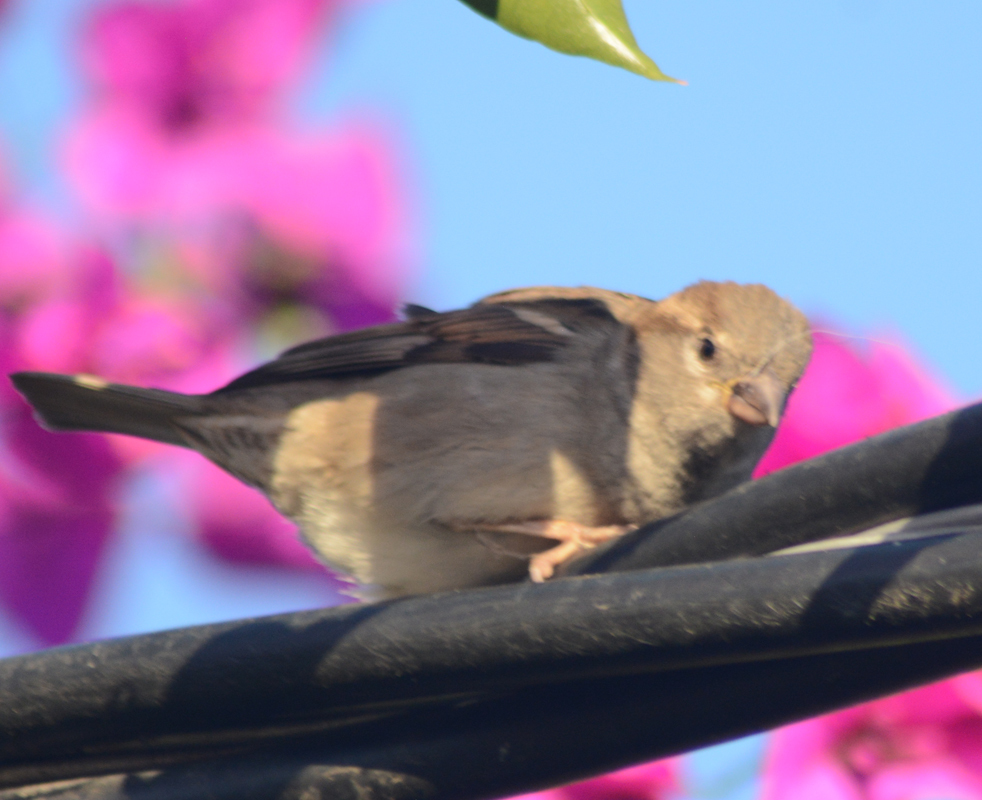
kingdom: Animalia
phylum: Chordata
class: Aves
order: Passeriformes
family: Passeridae
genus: Passer
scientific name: Passer domesticus
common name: House sparrow
